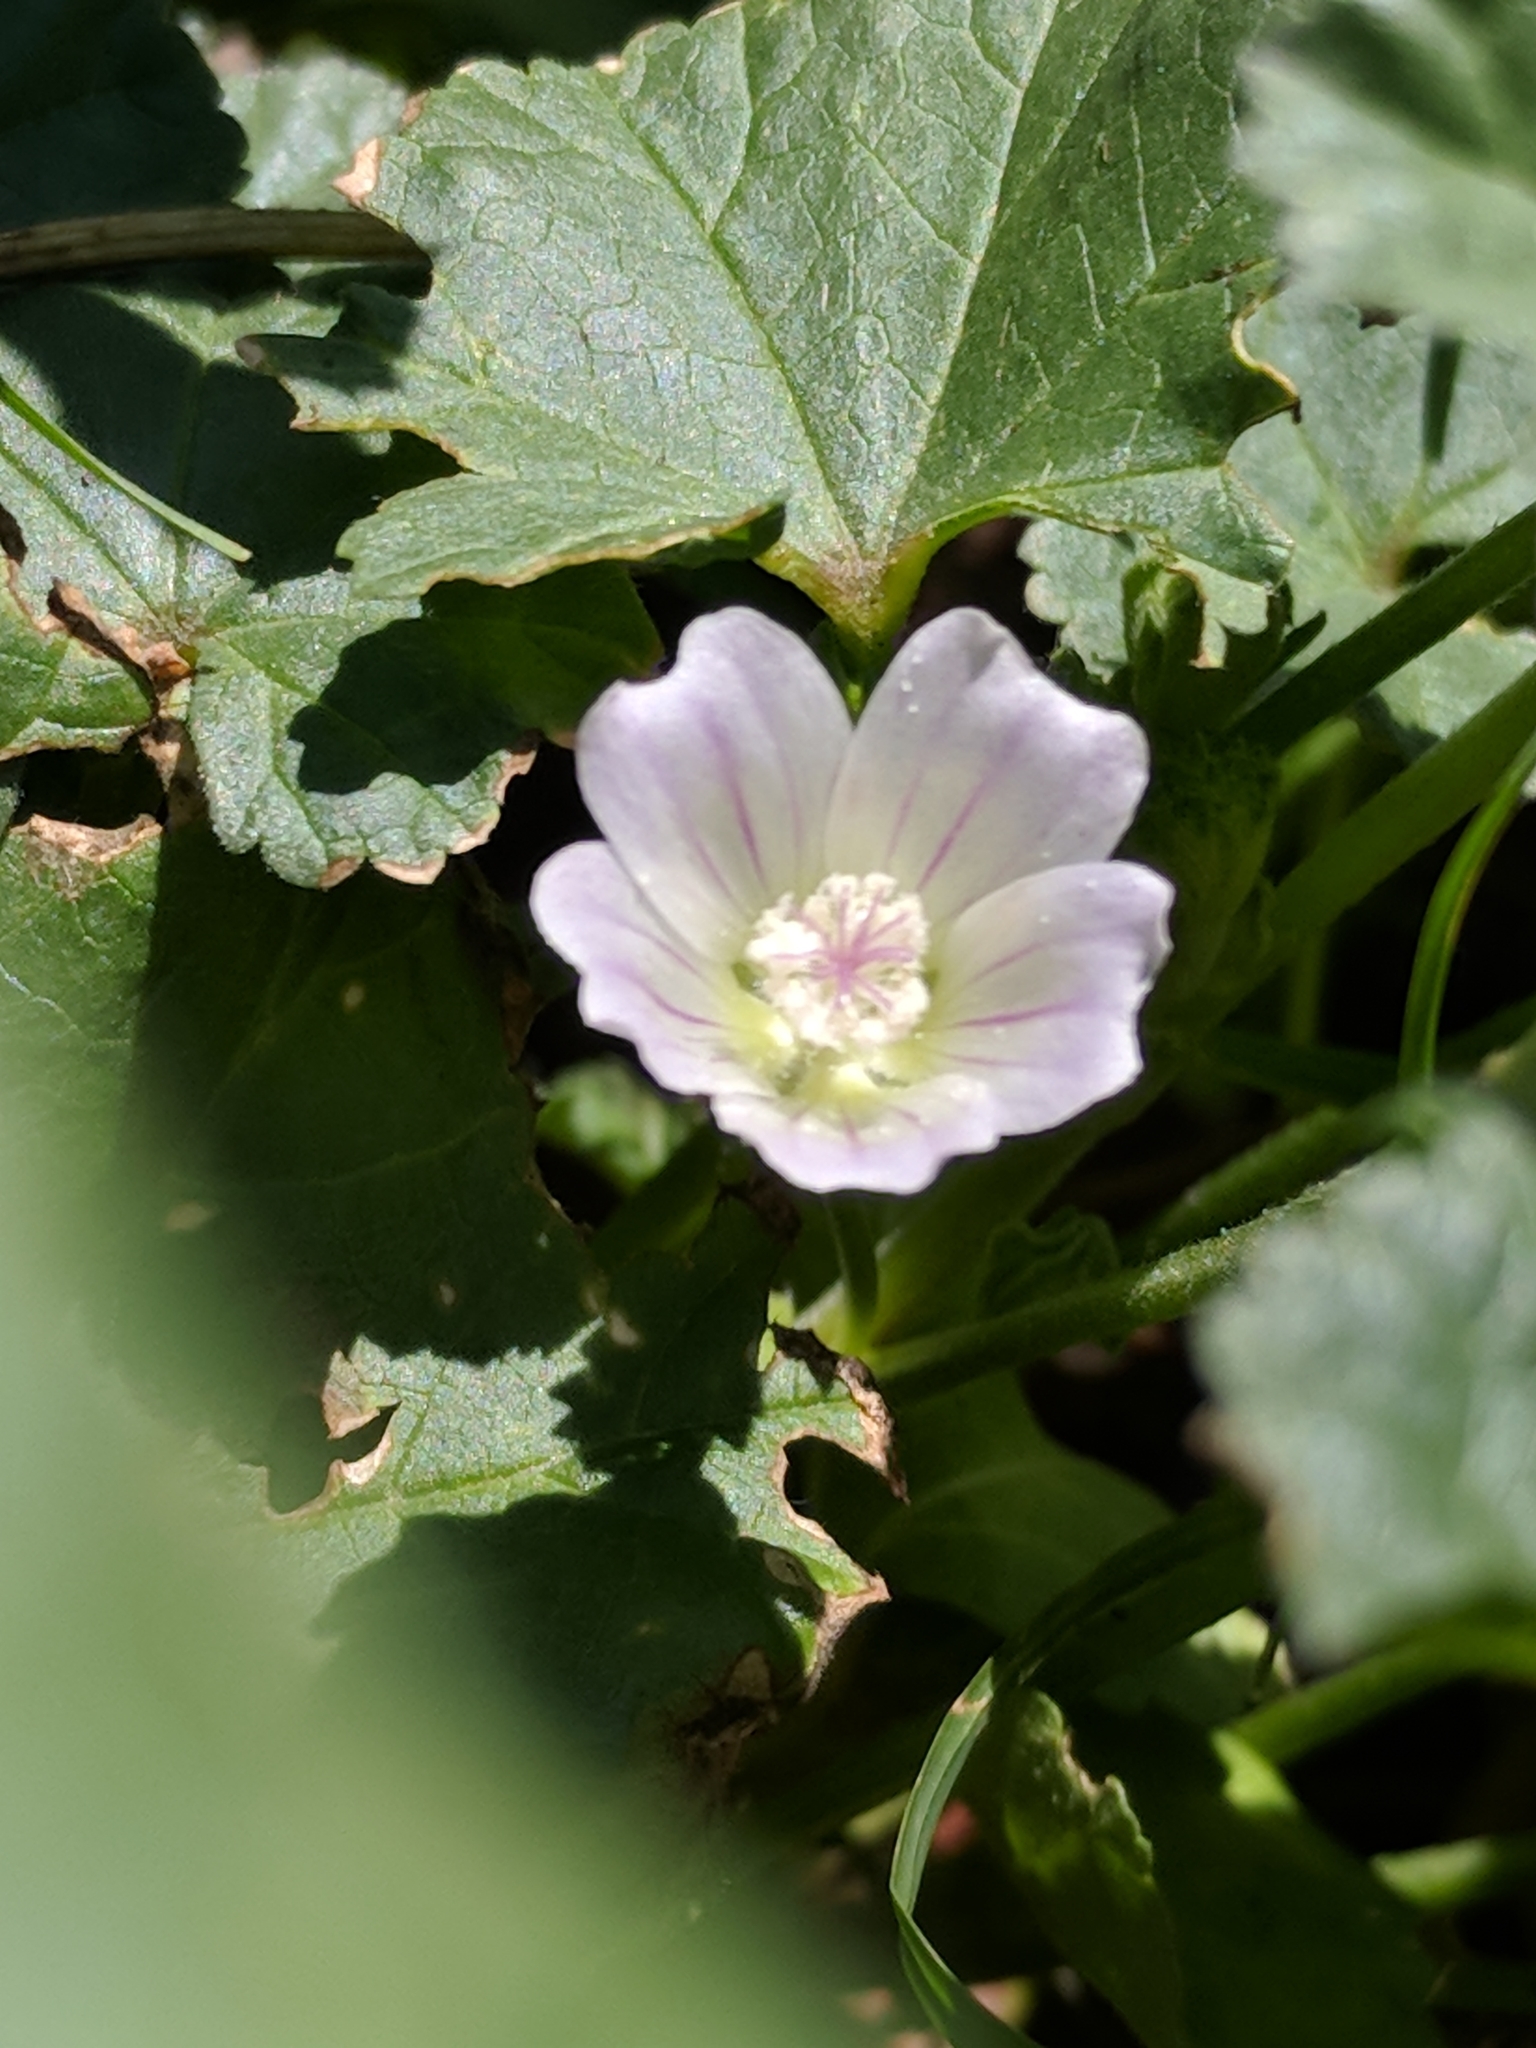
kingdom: Plantae
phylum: Tracheophyta
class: Magnoliopsida
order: Malvales
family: Malvaceae
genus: Malva
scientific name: Malva neglecta
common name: Common mallow
